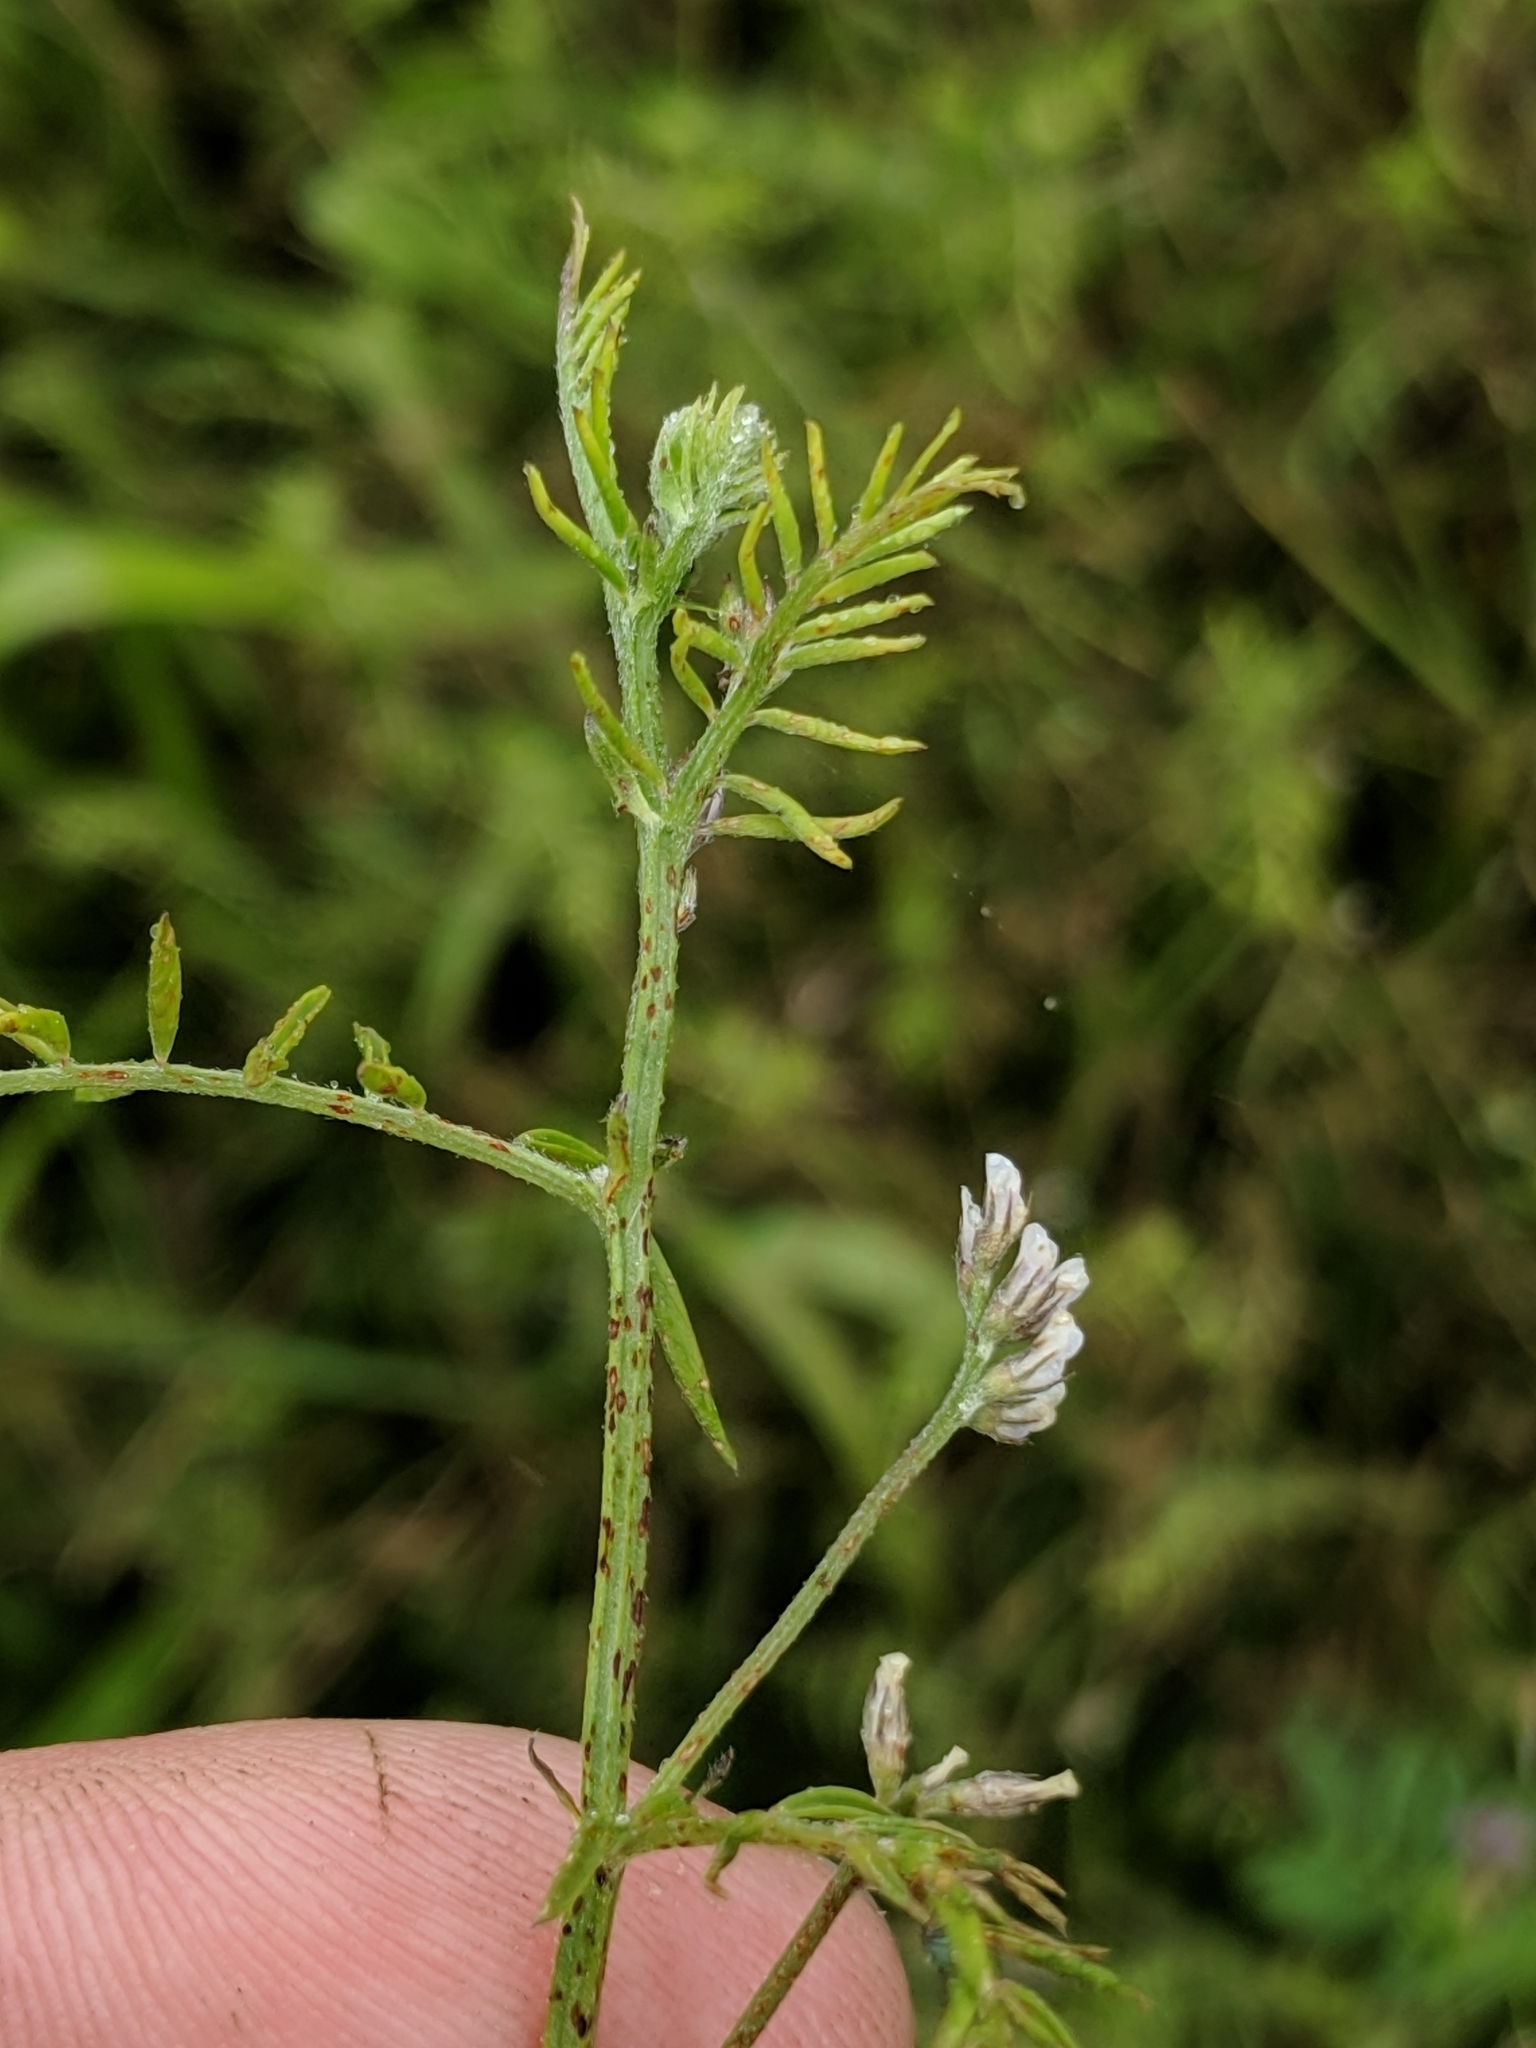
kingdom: Plantae
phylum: Tracheophyta
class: Magnoliopsida
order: Fabales
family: Fabaceae
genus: Vicia
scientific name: Vicia hirsuta
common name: Tiny vetch
